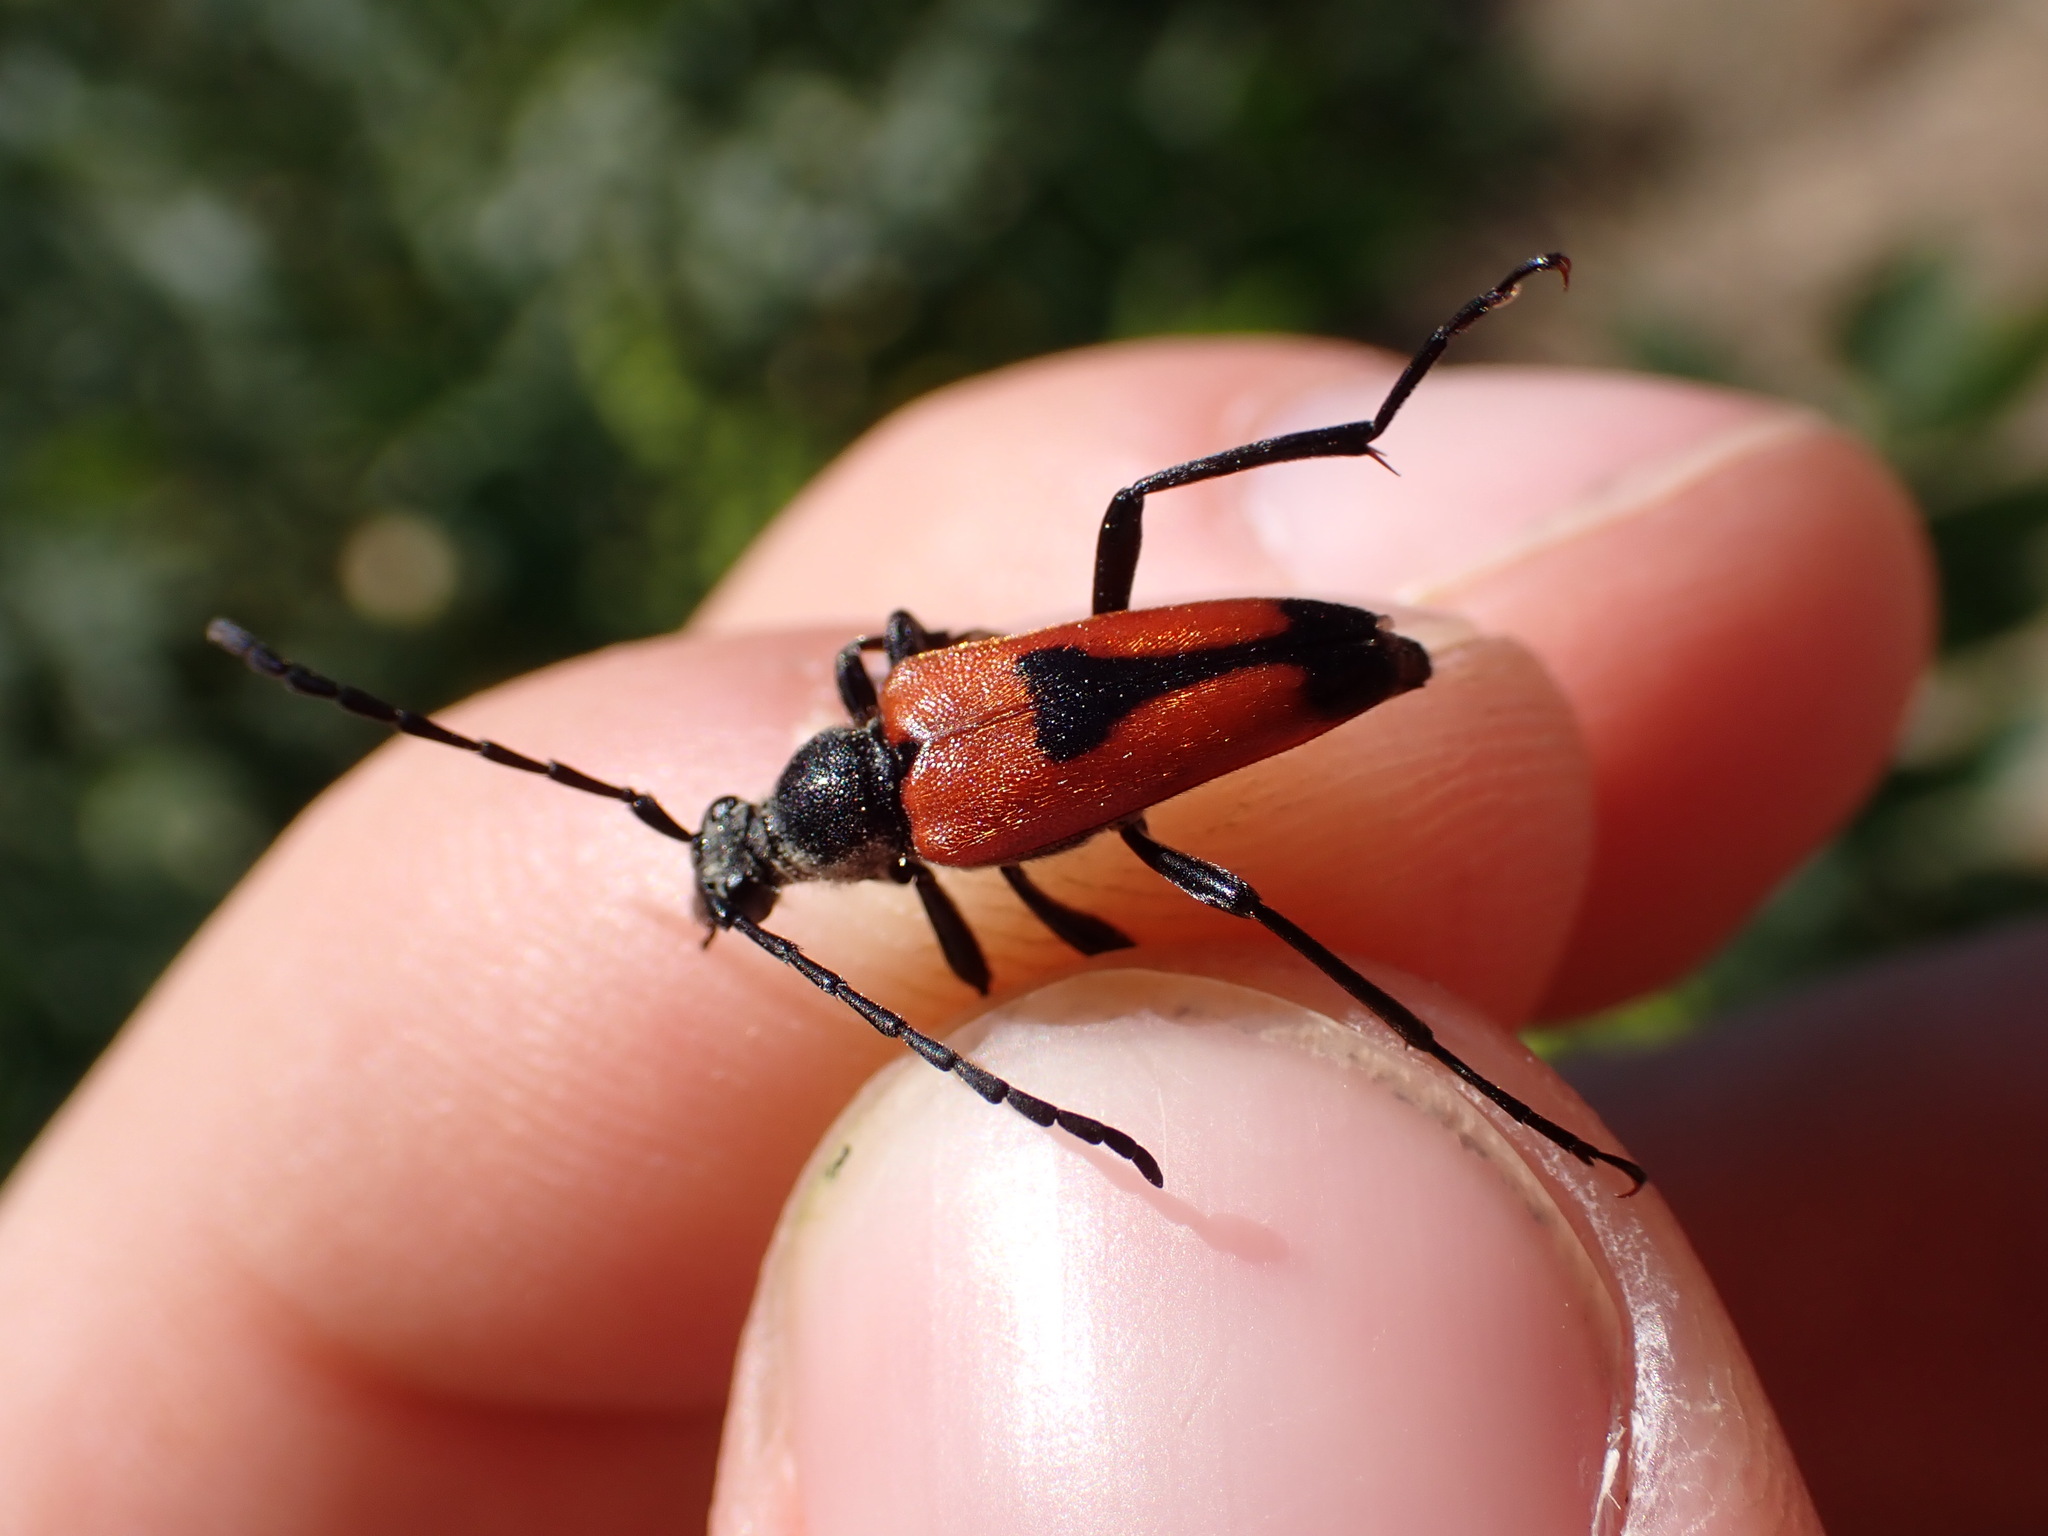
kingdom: Animalia
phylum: Arthropoda
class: Insecta
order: Coleoptera
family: Cerambycidae
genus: Stictoleptura
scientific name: Stictoleptura cordigera
